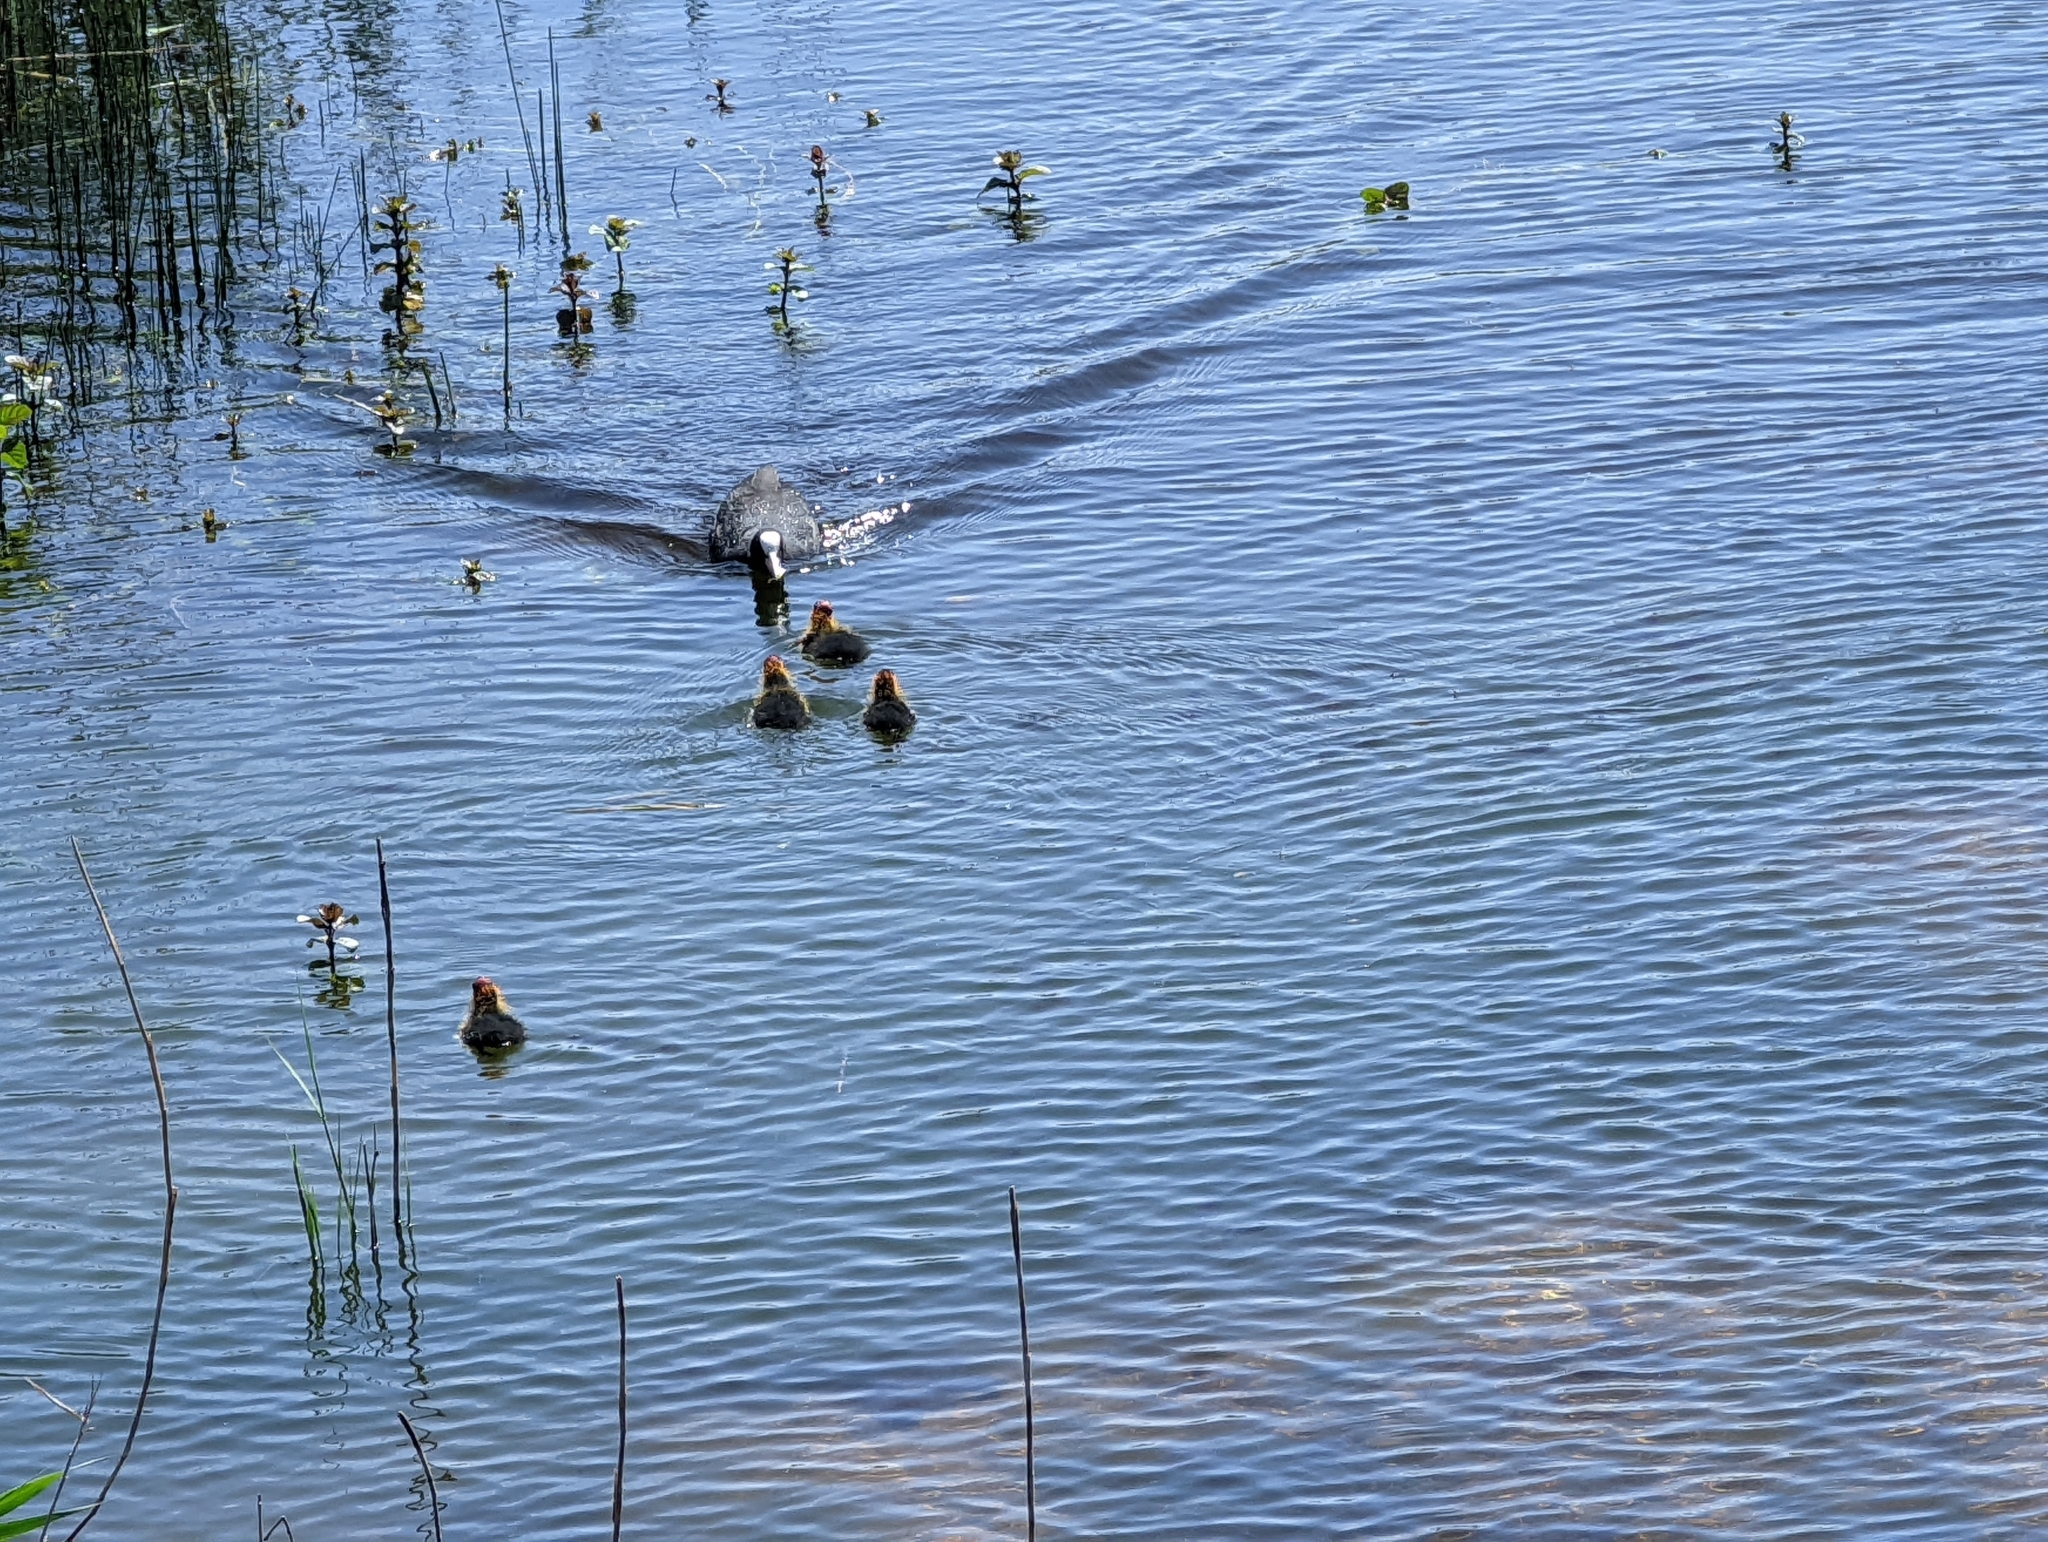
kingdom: Animalia
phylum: Chordata
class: Aves
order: Gruiformes
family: Rallidae
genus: Fulica
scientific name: Fulica atra
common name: Eurasian coot
